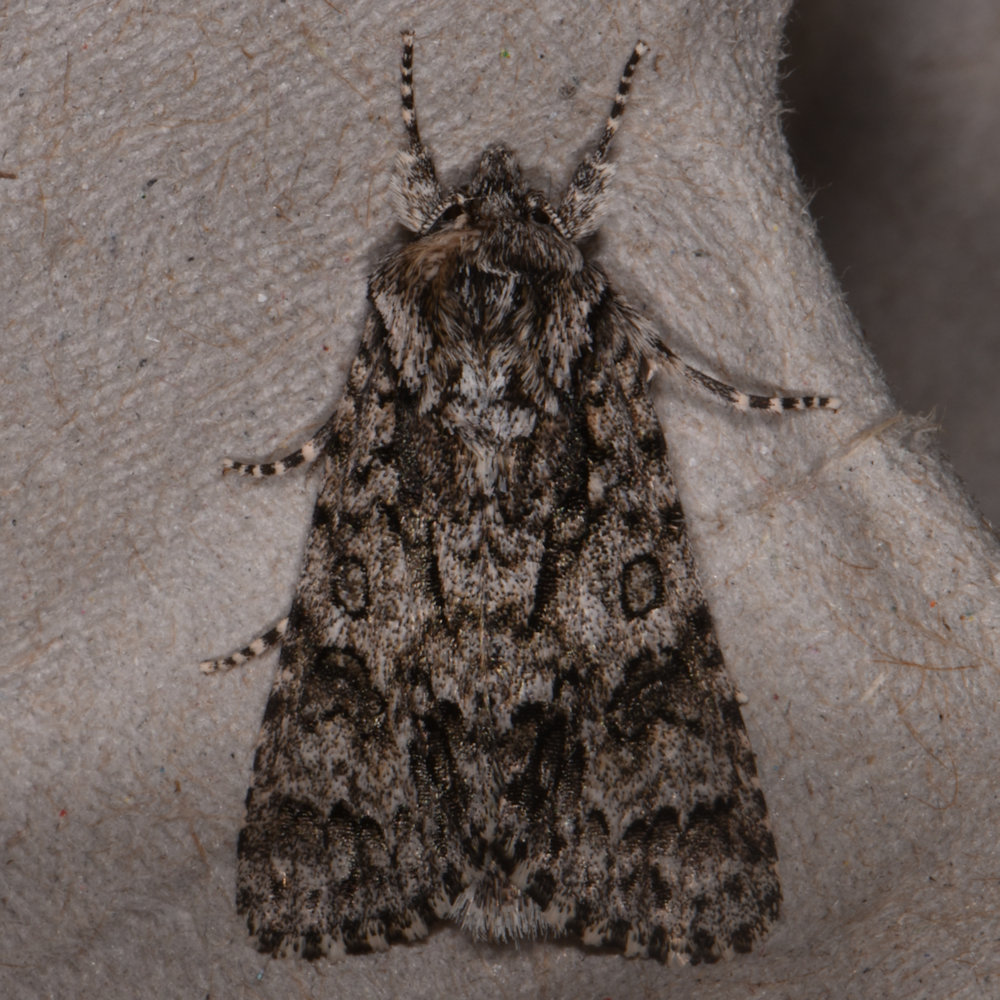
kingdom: Animalia
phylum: Arthropoda
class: Insecta
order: Lepidoptera
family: Noctuidae
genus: Acronicta
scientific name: Acronicta impressa
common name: Impressed dagger
